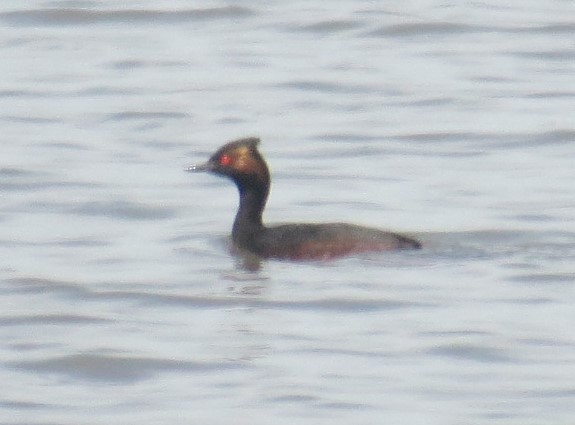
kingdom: Animalia
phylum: Chordata
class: Aves
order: Podicipediformes
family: Podicipedidae
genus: Podiceps
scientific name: Podiceps nigricollis
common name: Black-necked grebe
